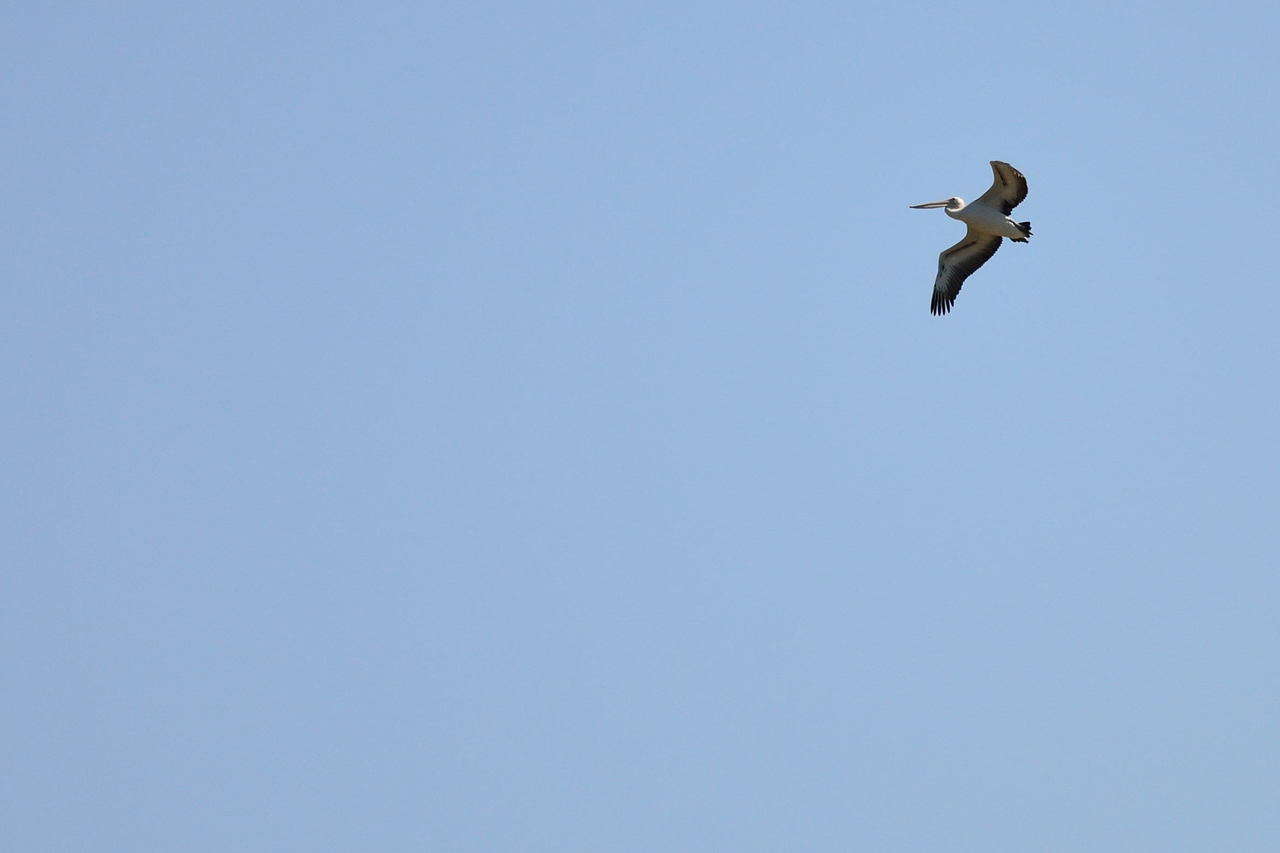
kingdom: Animalia
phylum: Chordata
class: Aves
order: Pelecaniformes
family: Pelecanidae
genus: Pelecanus
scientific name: Pelecanus conspicillatus
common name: Australian pelican
